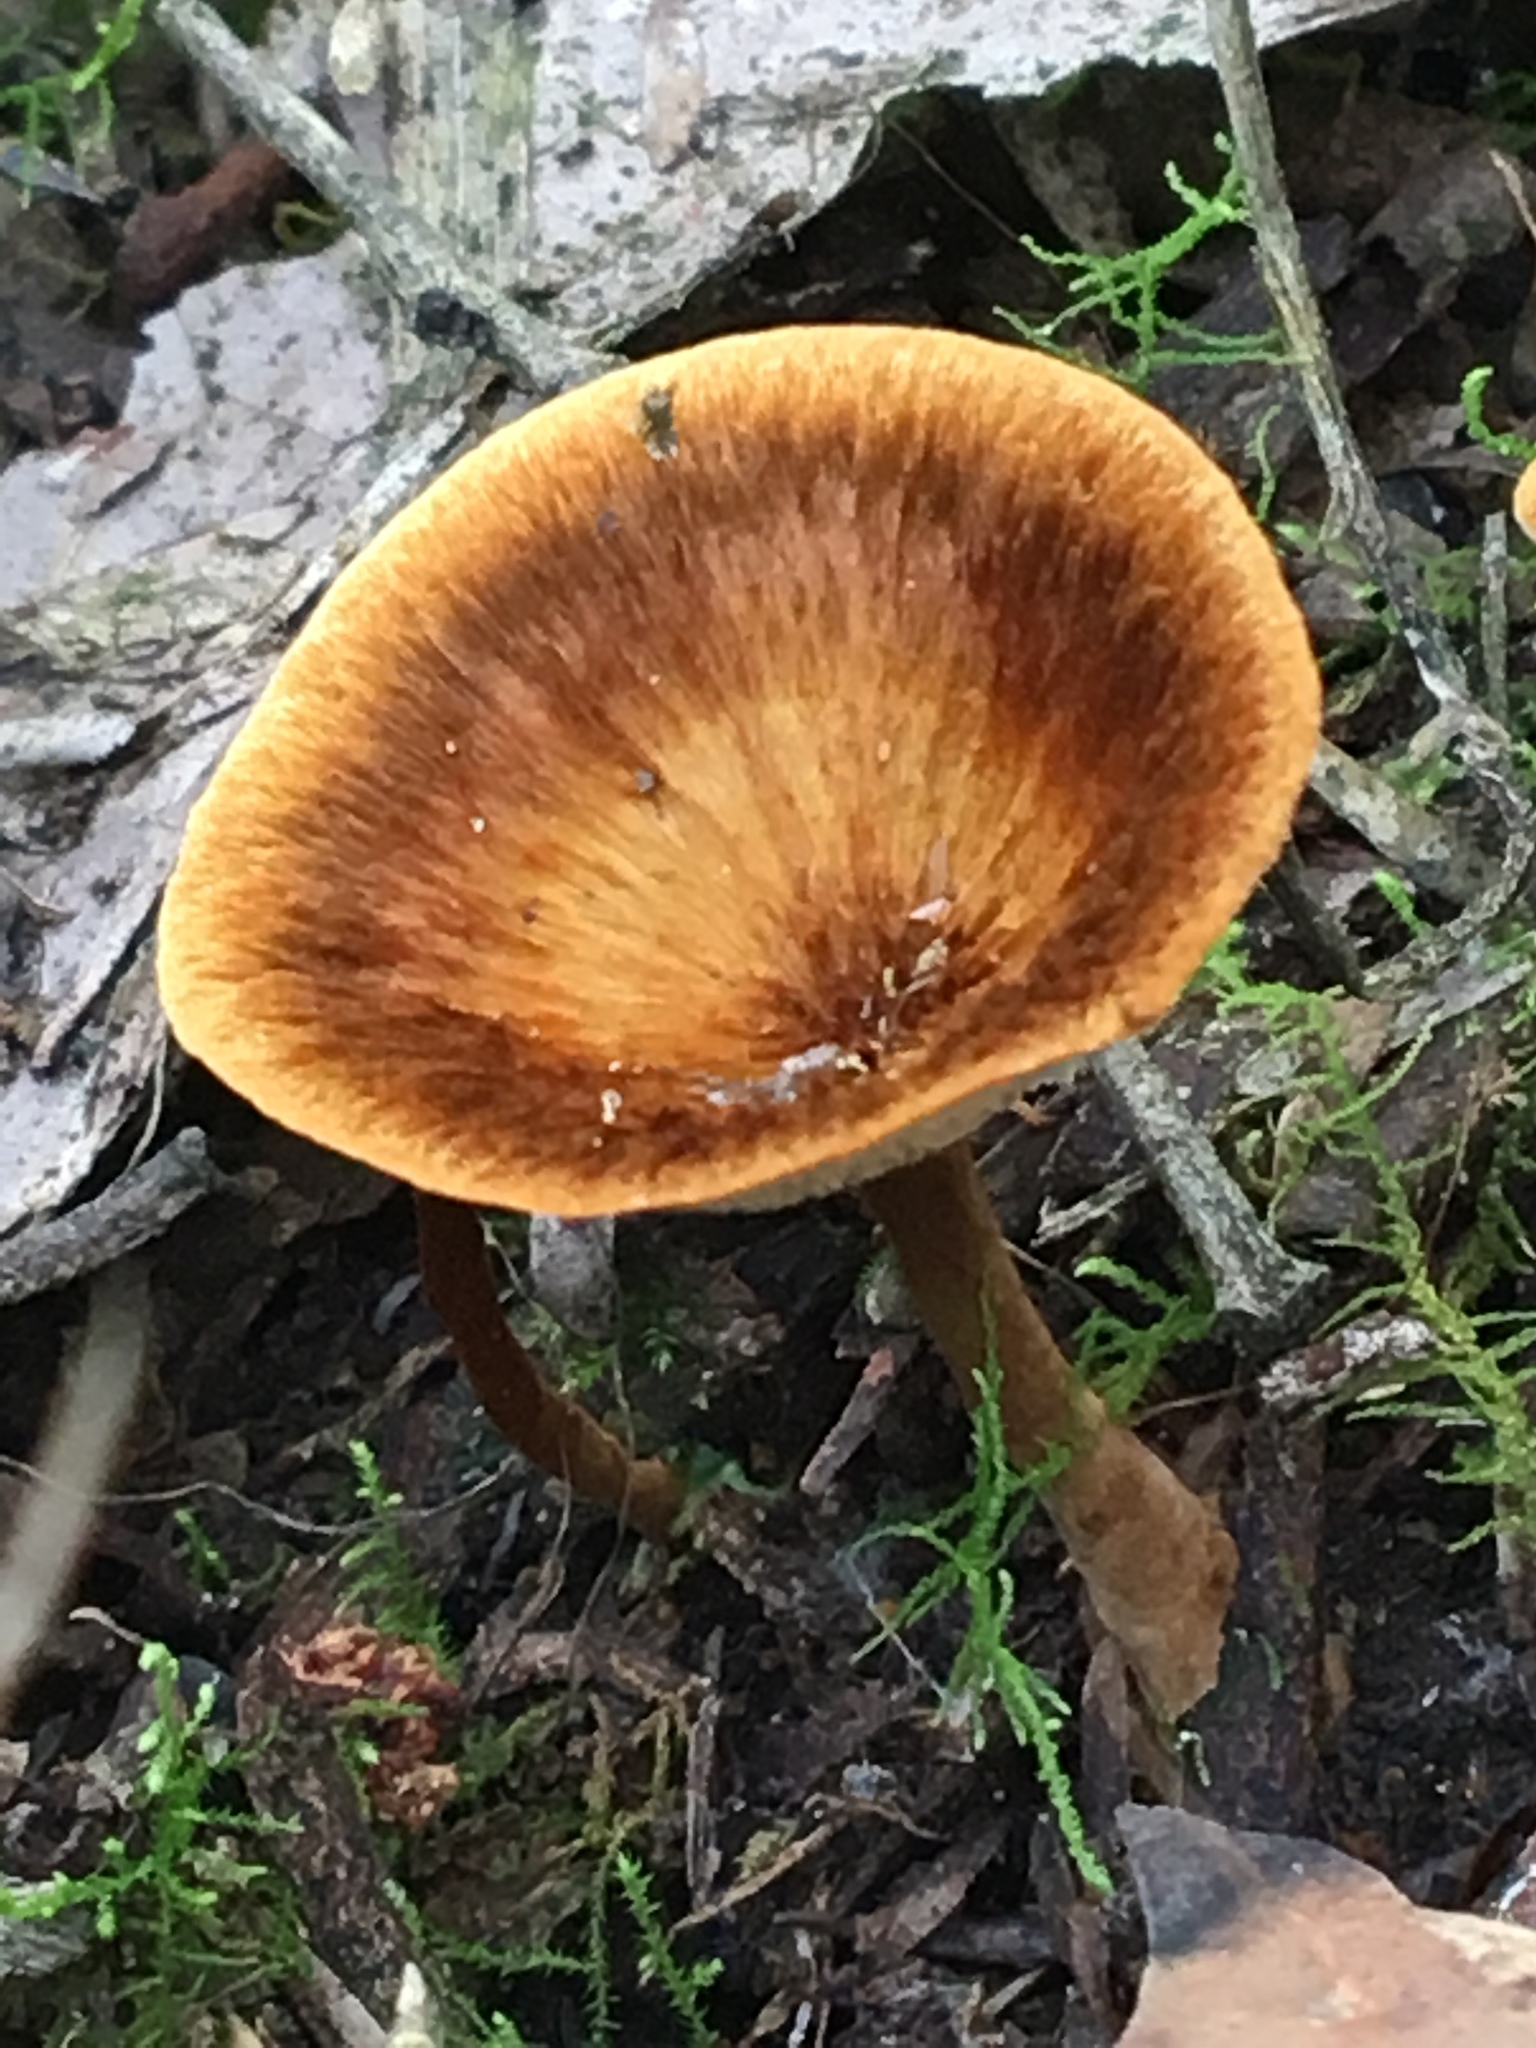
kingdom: Fungi
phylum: Basidiomycota
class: Agaricomycetes
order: Hymenochaetales
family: Hymenochaetaceae
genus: Coltricia
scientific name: Coltricia australica
